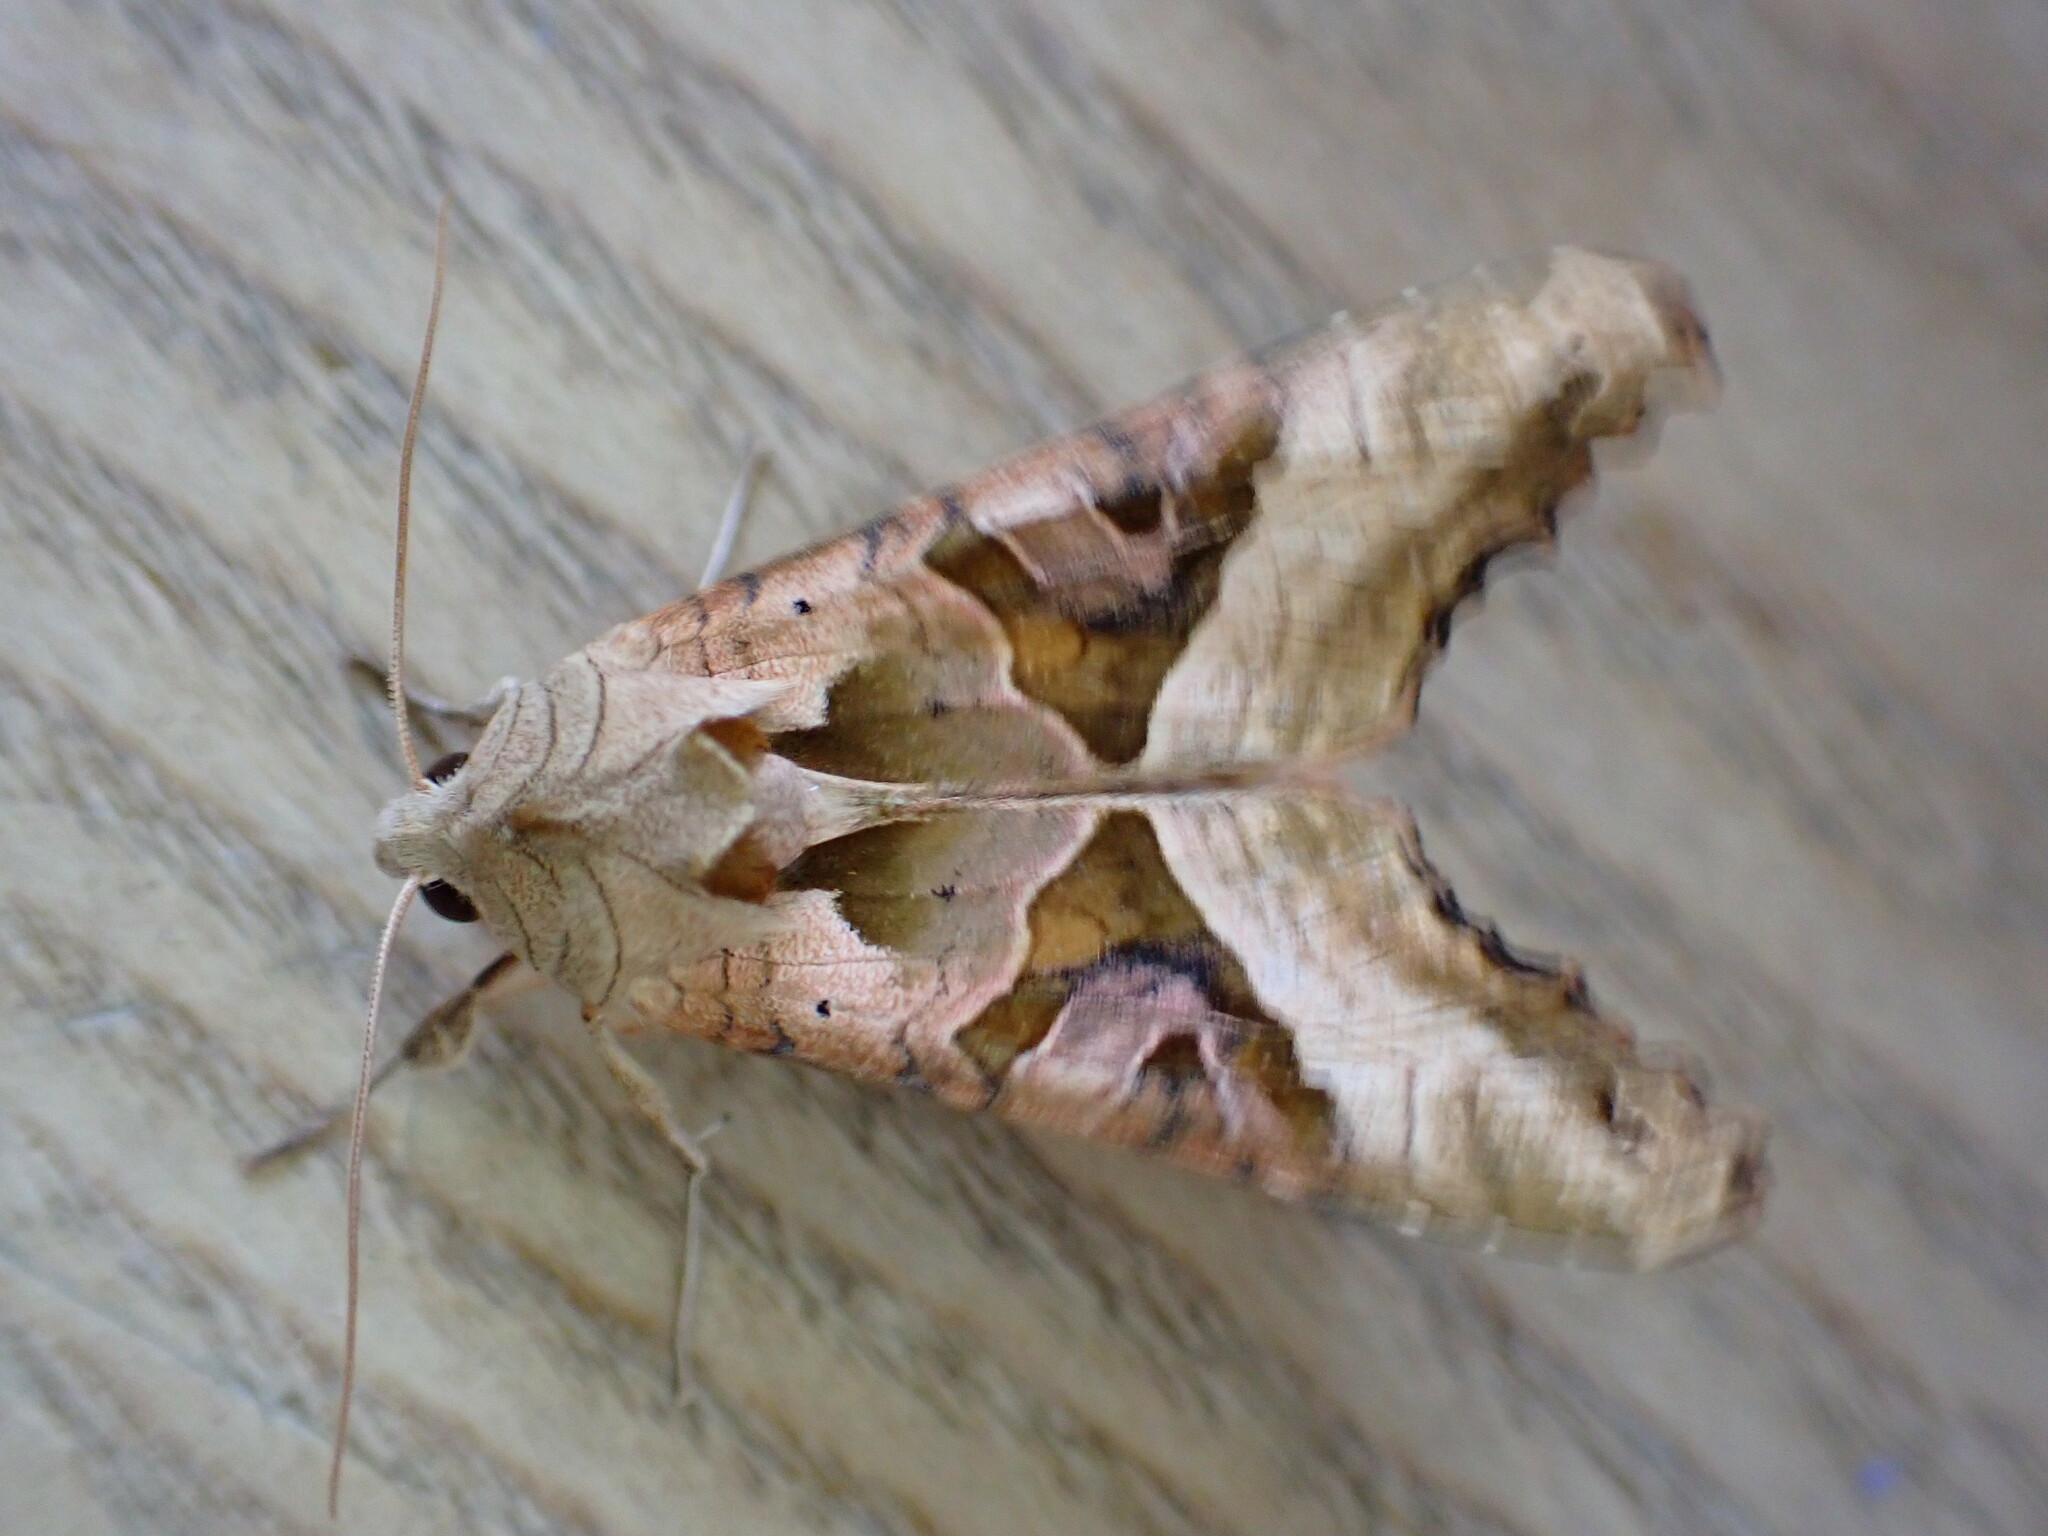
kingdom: Animalia
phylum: Arthropoda
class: Insecta
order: Lepidoptera
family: Noctuidae
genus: Phlogophora
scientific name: Phlogophora meticulosa
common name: Angle shades
